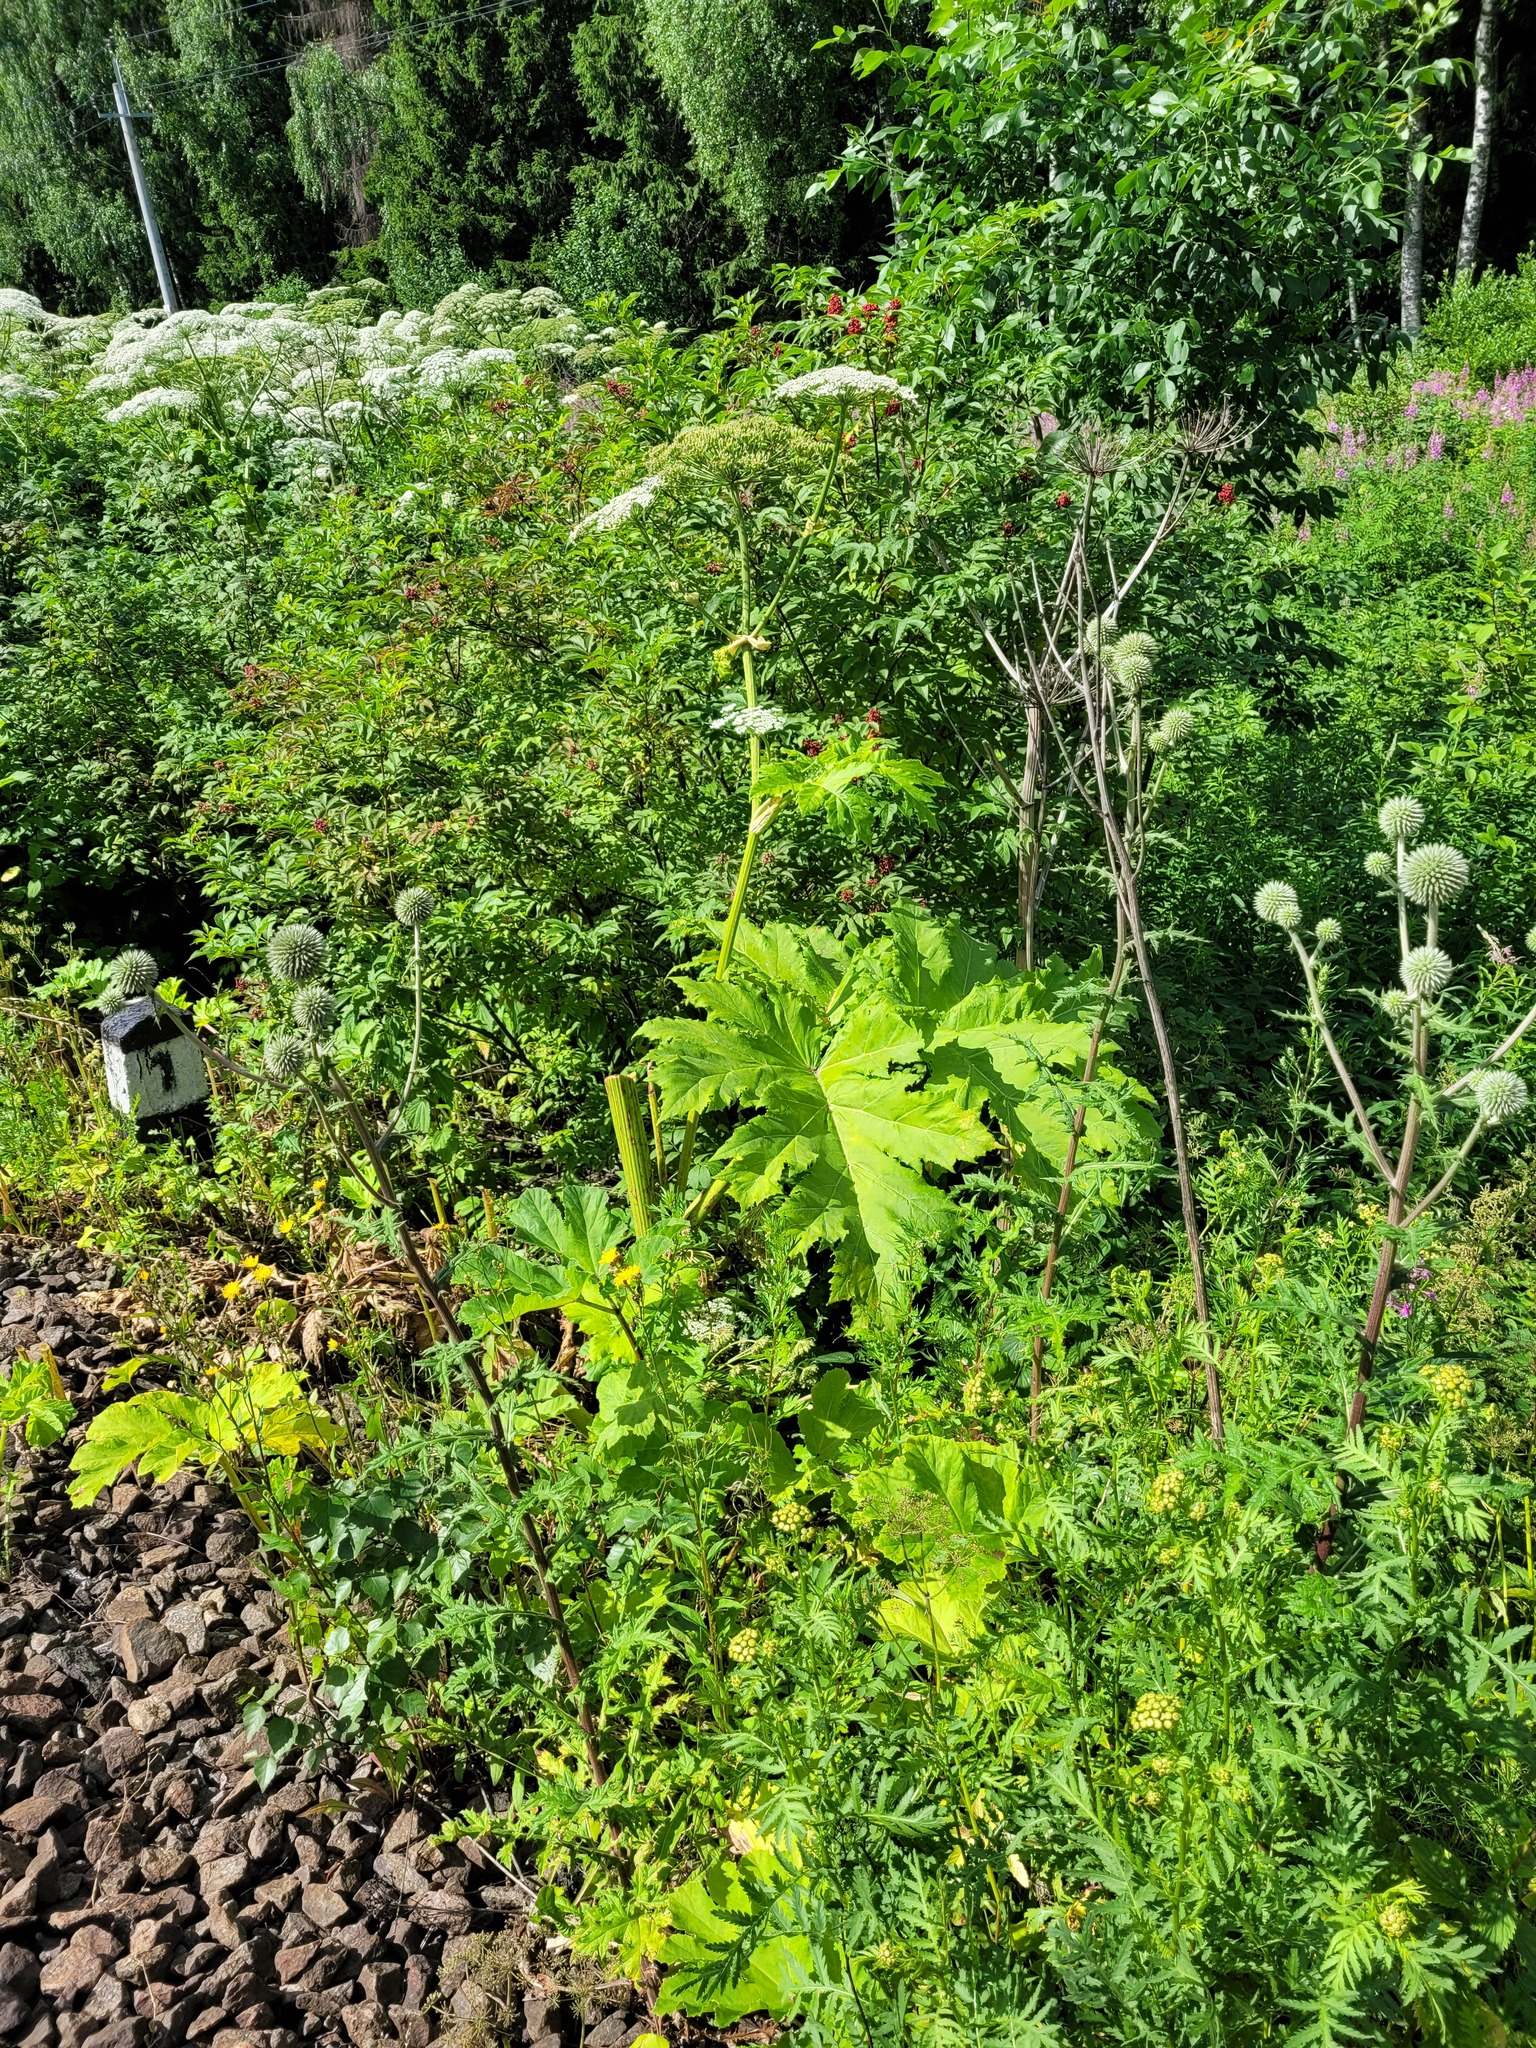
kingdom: Plantae
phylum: Tracheophyta
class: Magnoliopsida
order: Apiales
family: Apiaceae
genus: Heracleum
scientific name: Heracleum sosnowskyi
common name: Sosnowsky's hogweed
